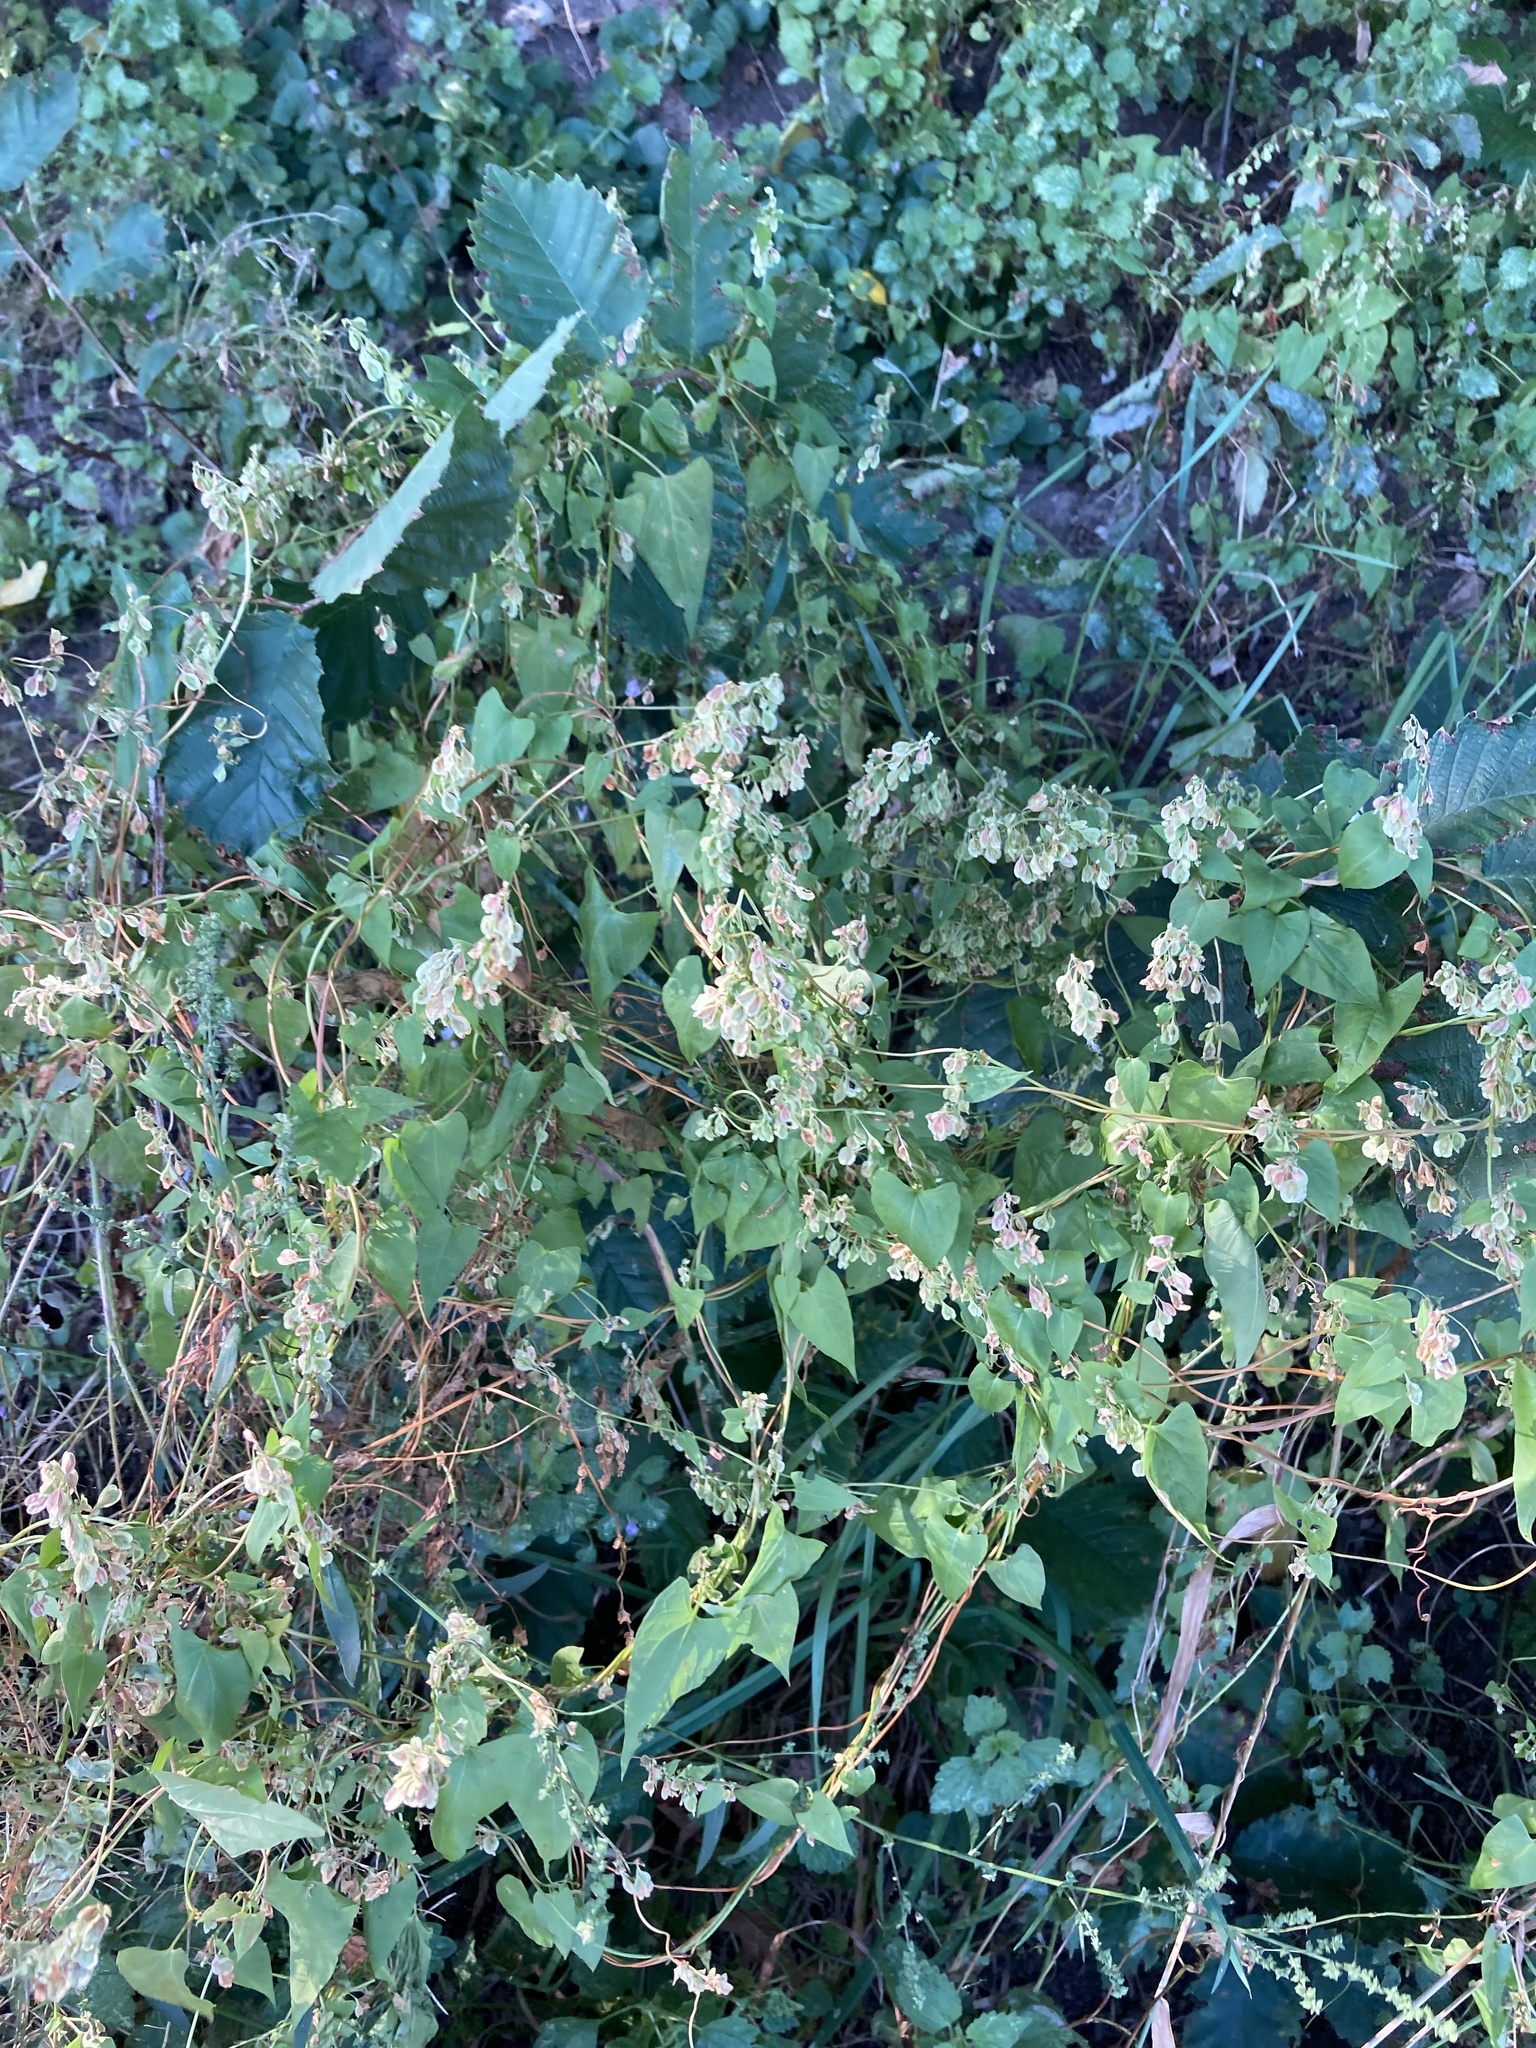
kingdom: Plantae
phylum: Tracheophyta
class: Magnoliopsida
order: Caryophyllales
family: Polygonaceae
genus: Fallopia
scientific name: Fallopia dumetorum
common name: Copse-bindweed
